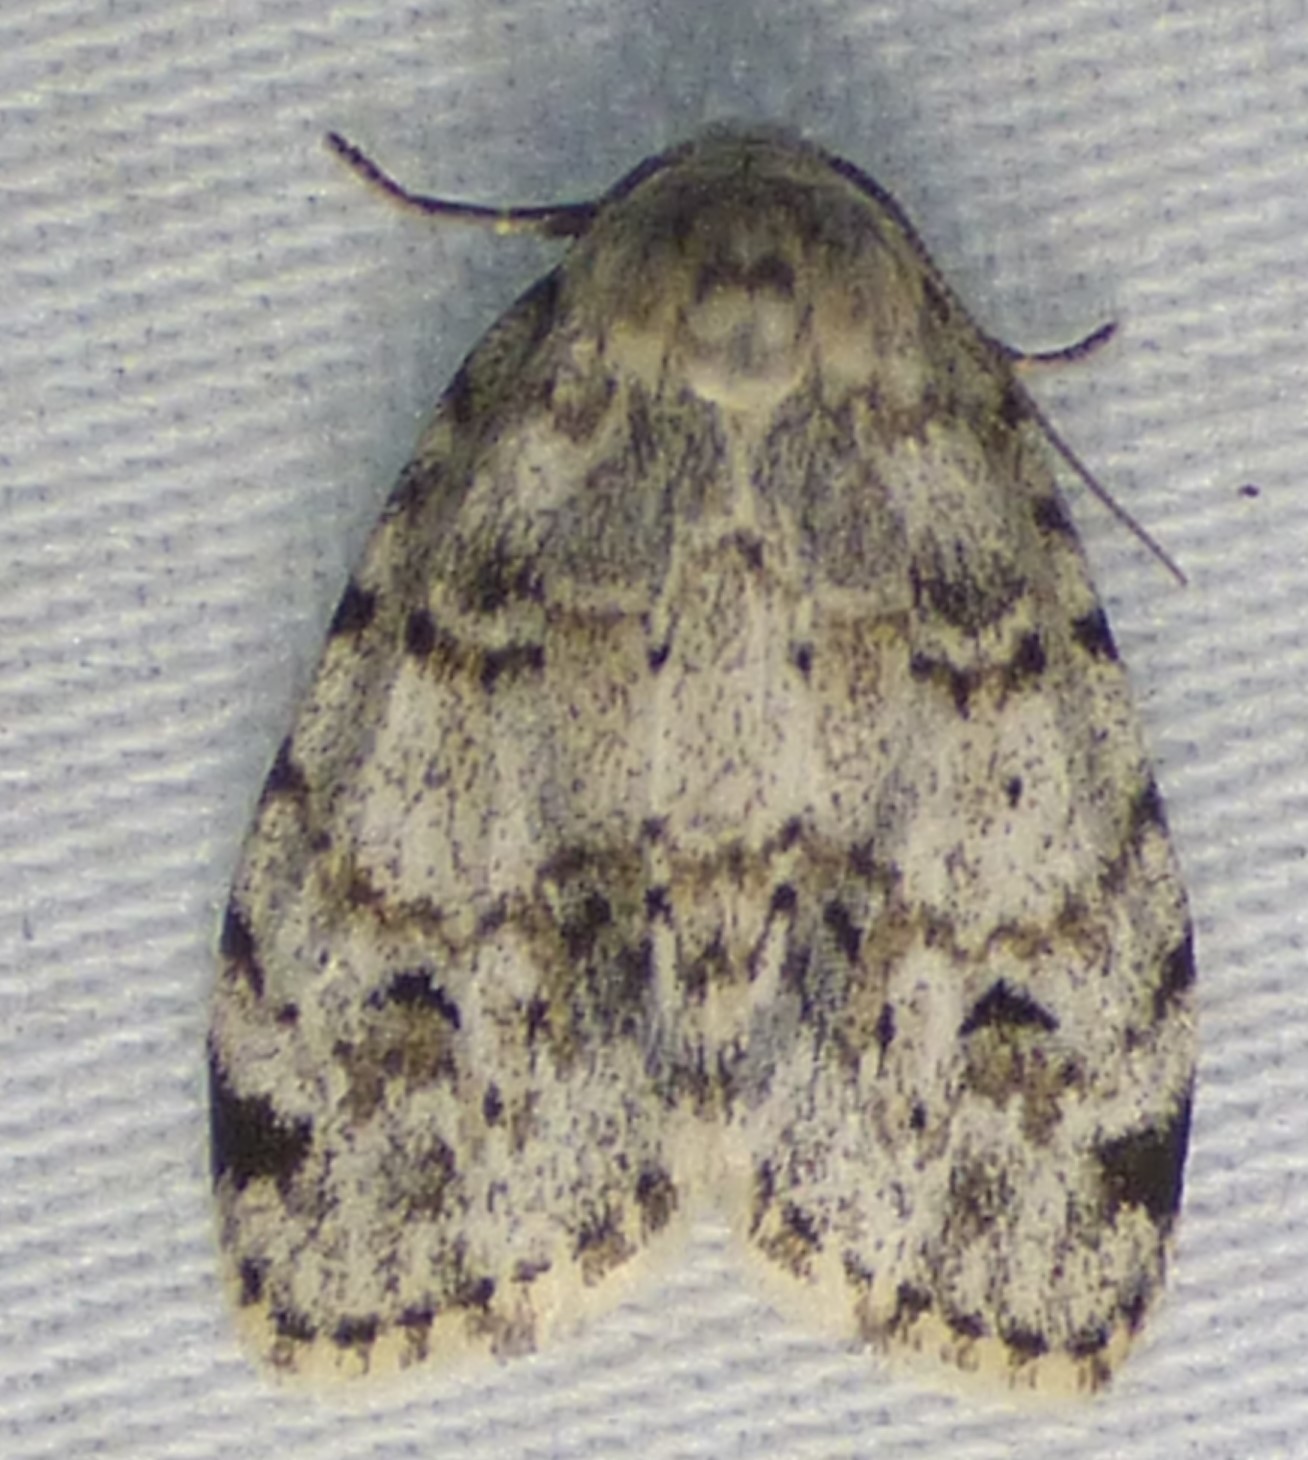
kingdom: Animalia
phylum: Arthropoda
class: Insecta
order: Lepidoptera
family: Erebidae
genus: Clemensia
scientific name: Clemensia ochreata
